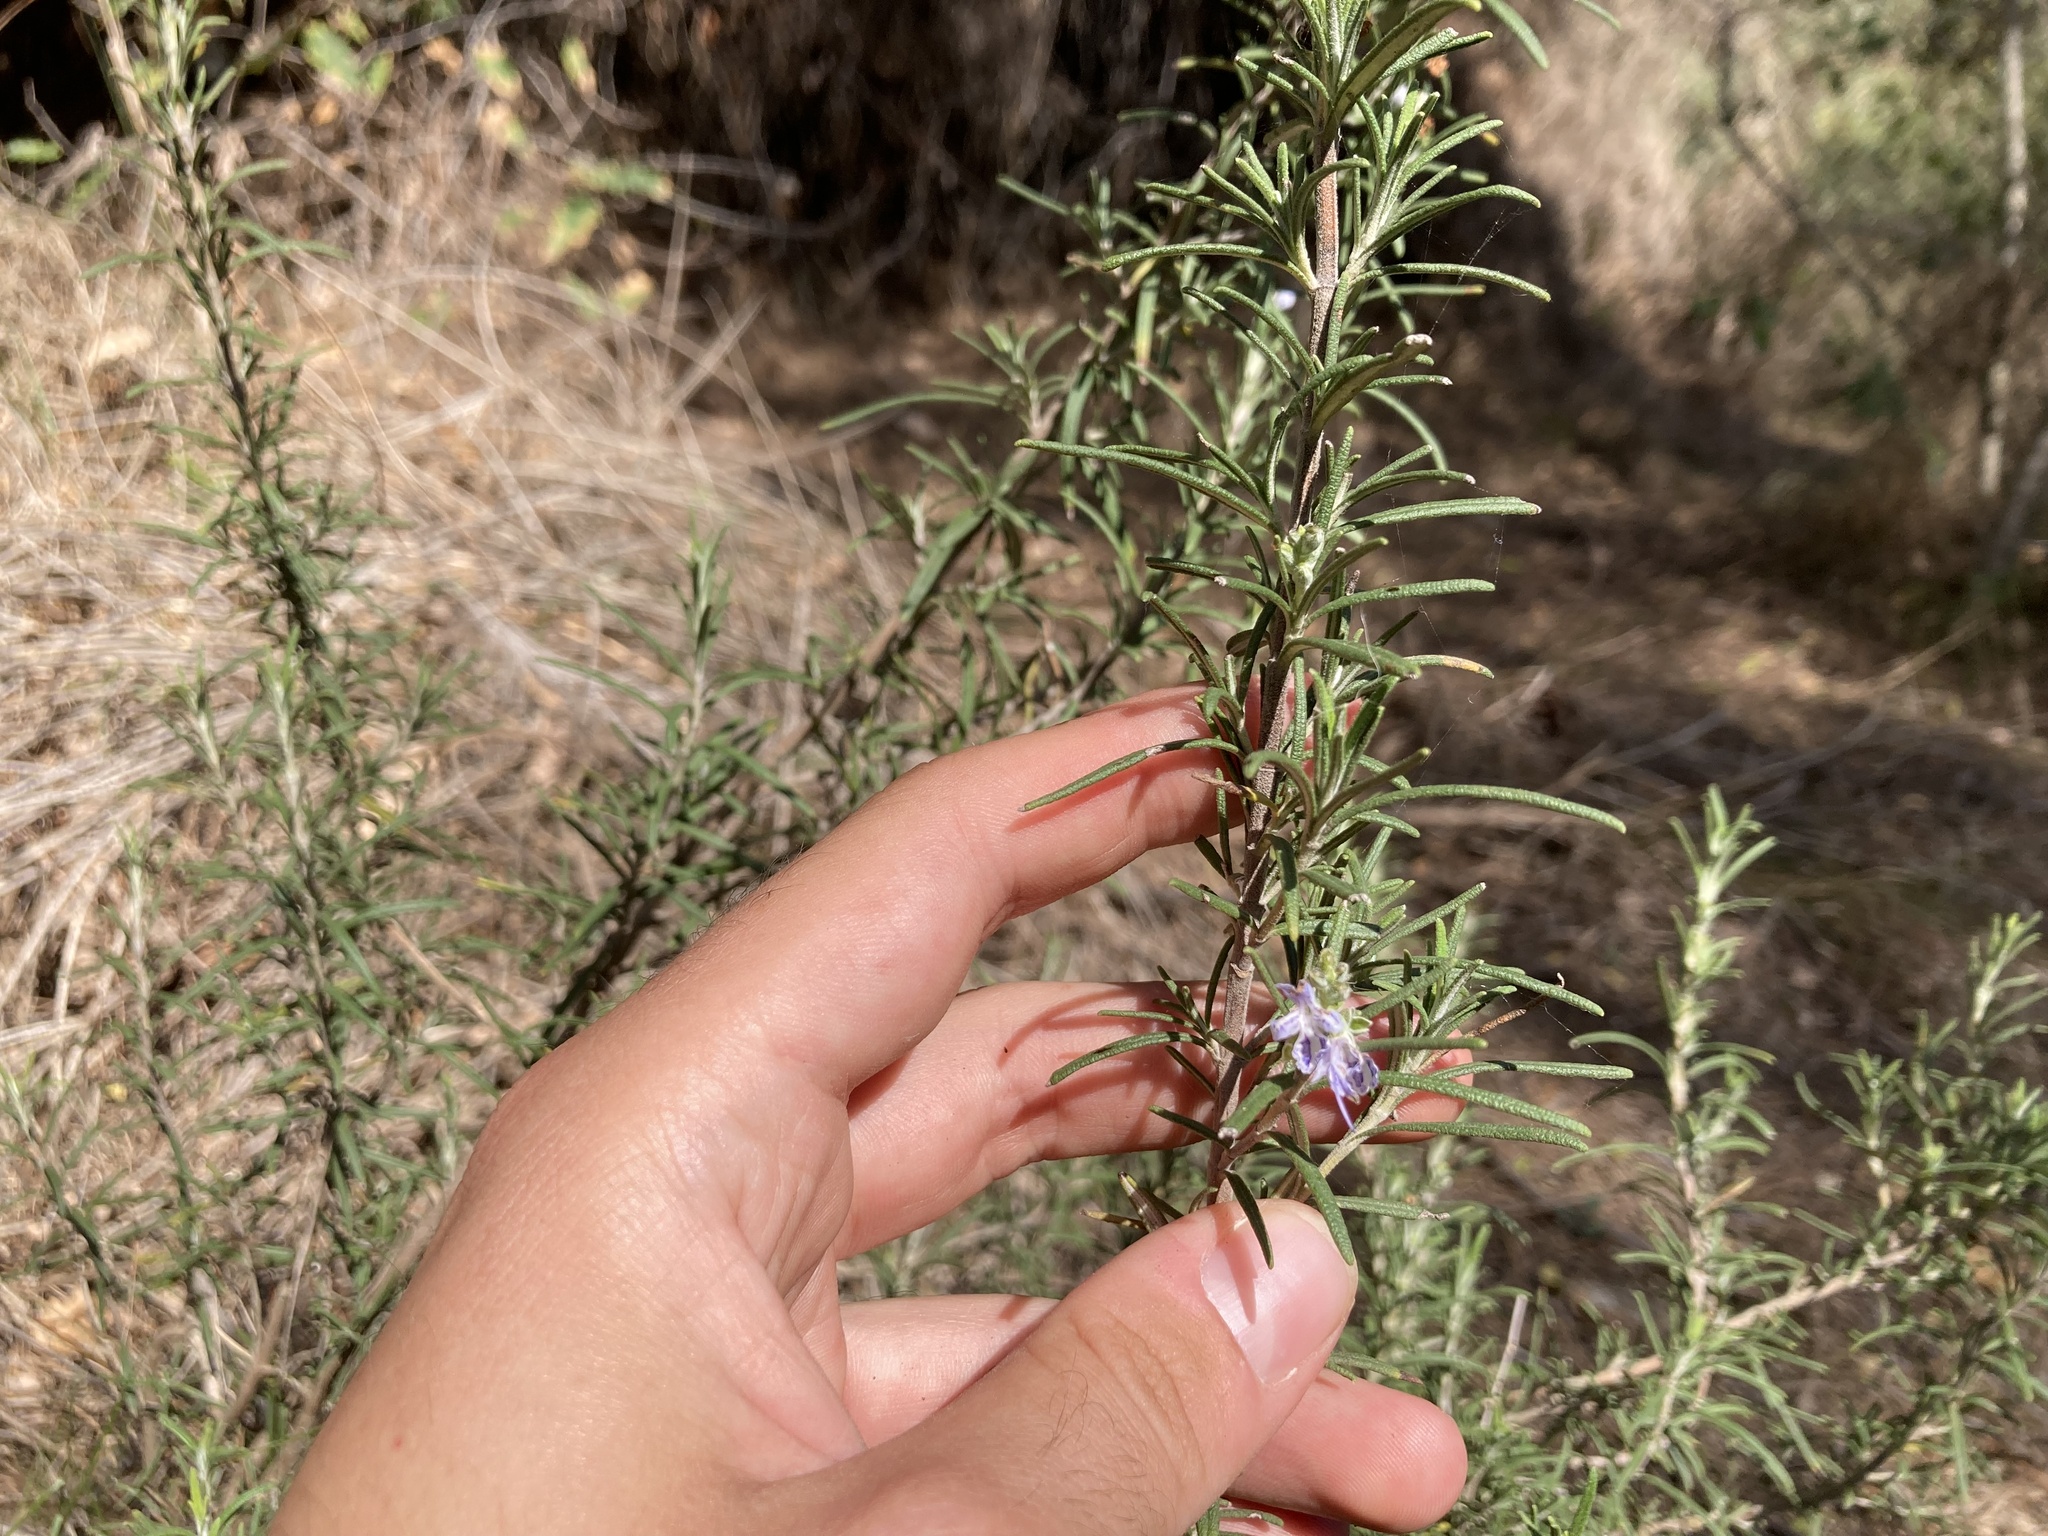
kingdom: Plantae
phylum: Tracheophyta
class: Magnoliopsida
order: Lamiales
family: Lamiaceae
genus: Salvia
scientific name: Salvia rosmarinus
